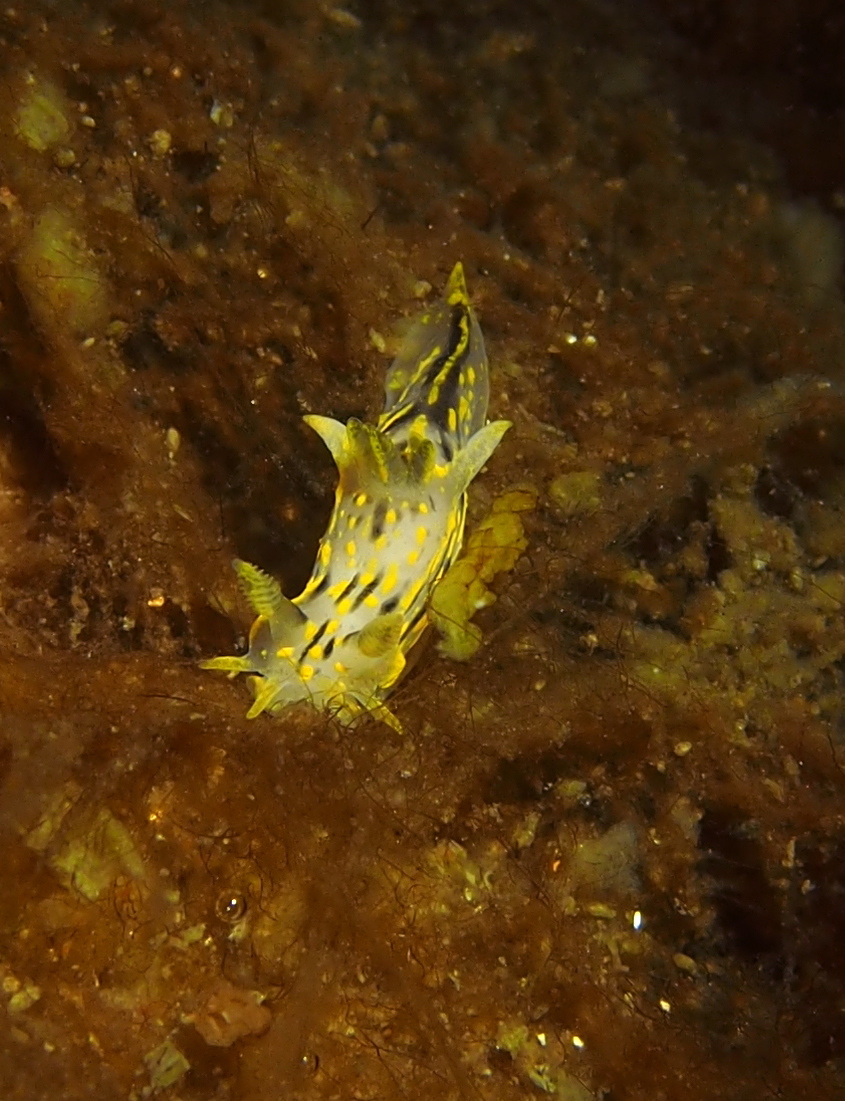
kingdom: Animalia
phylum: Mollusca
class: Gastropoda
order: Nudibranchia
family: Polyceridae
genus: Polycera
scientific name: Polycera quadrilineata
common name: Four-striped polycera
